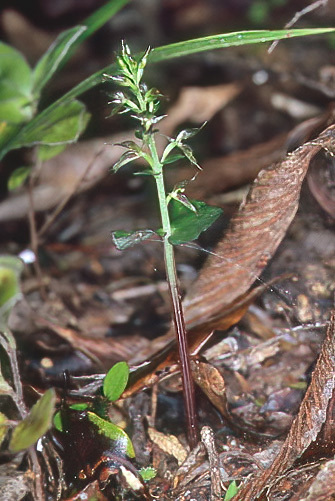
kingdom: Plantae
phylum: Tracheophyta
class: Liliopsida
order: Asparagales
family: Orchidaceae
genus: Acianthus
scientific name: Acianthus sinclairii
